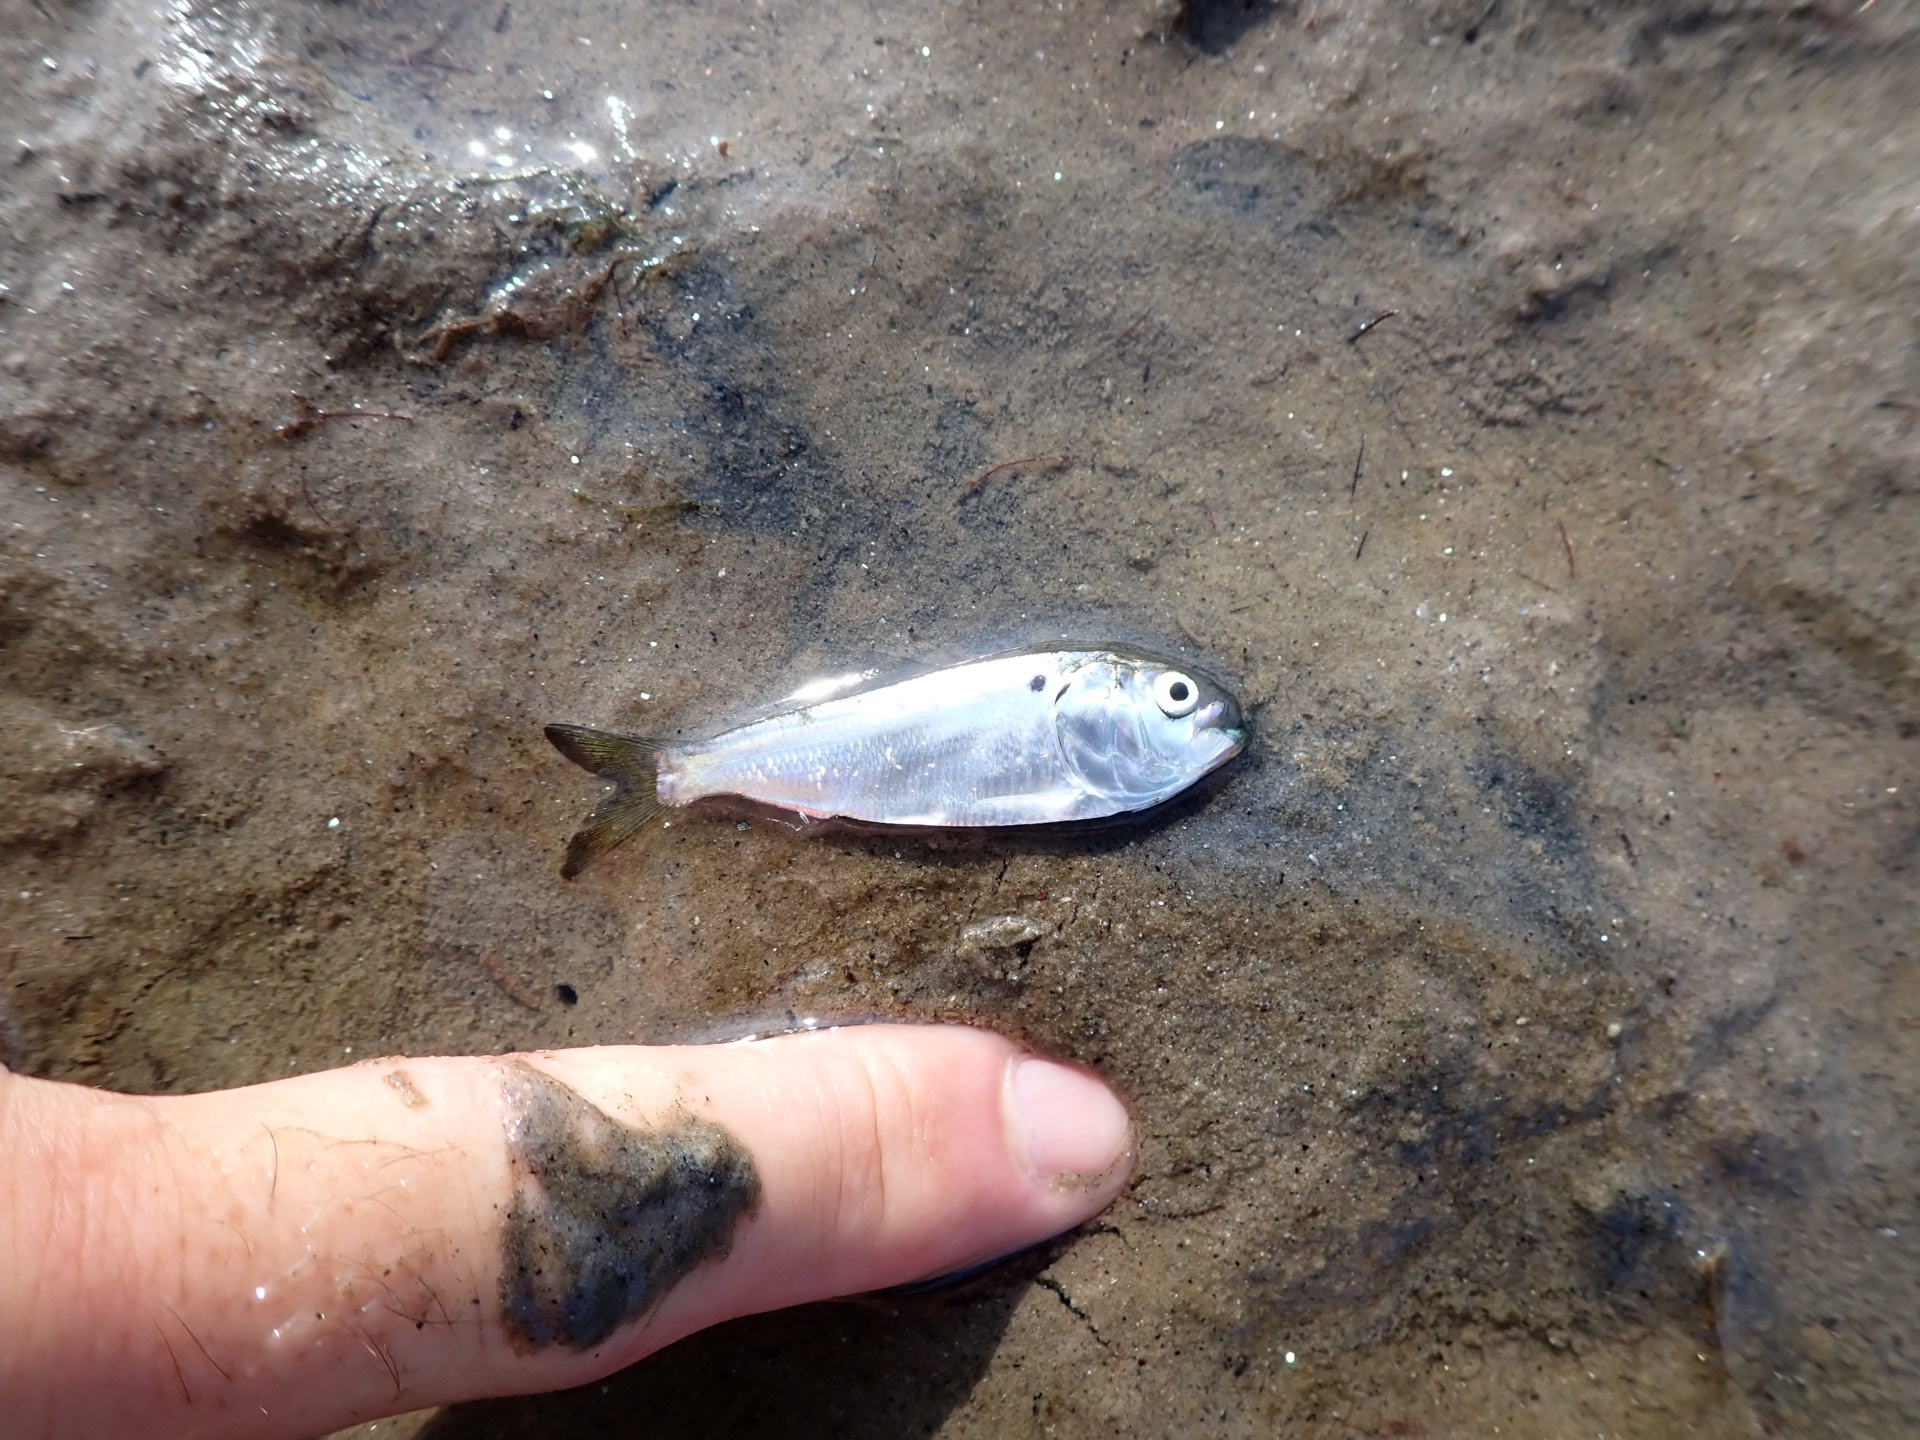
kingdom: Animalia
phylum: Chordata
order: Clupeiformes
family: Clupeidae
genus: Brevoortia
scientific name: Brevoortia tyrannus
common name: Atlantic menhaden
